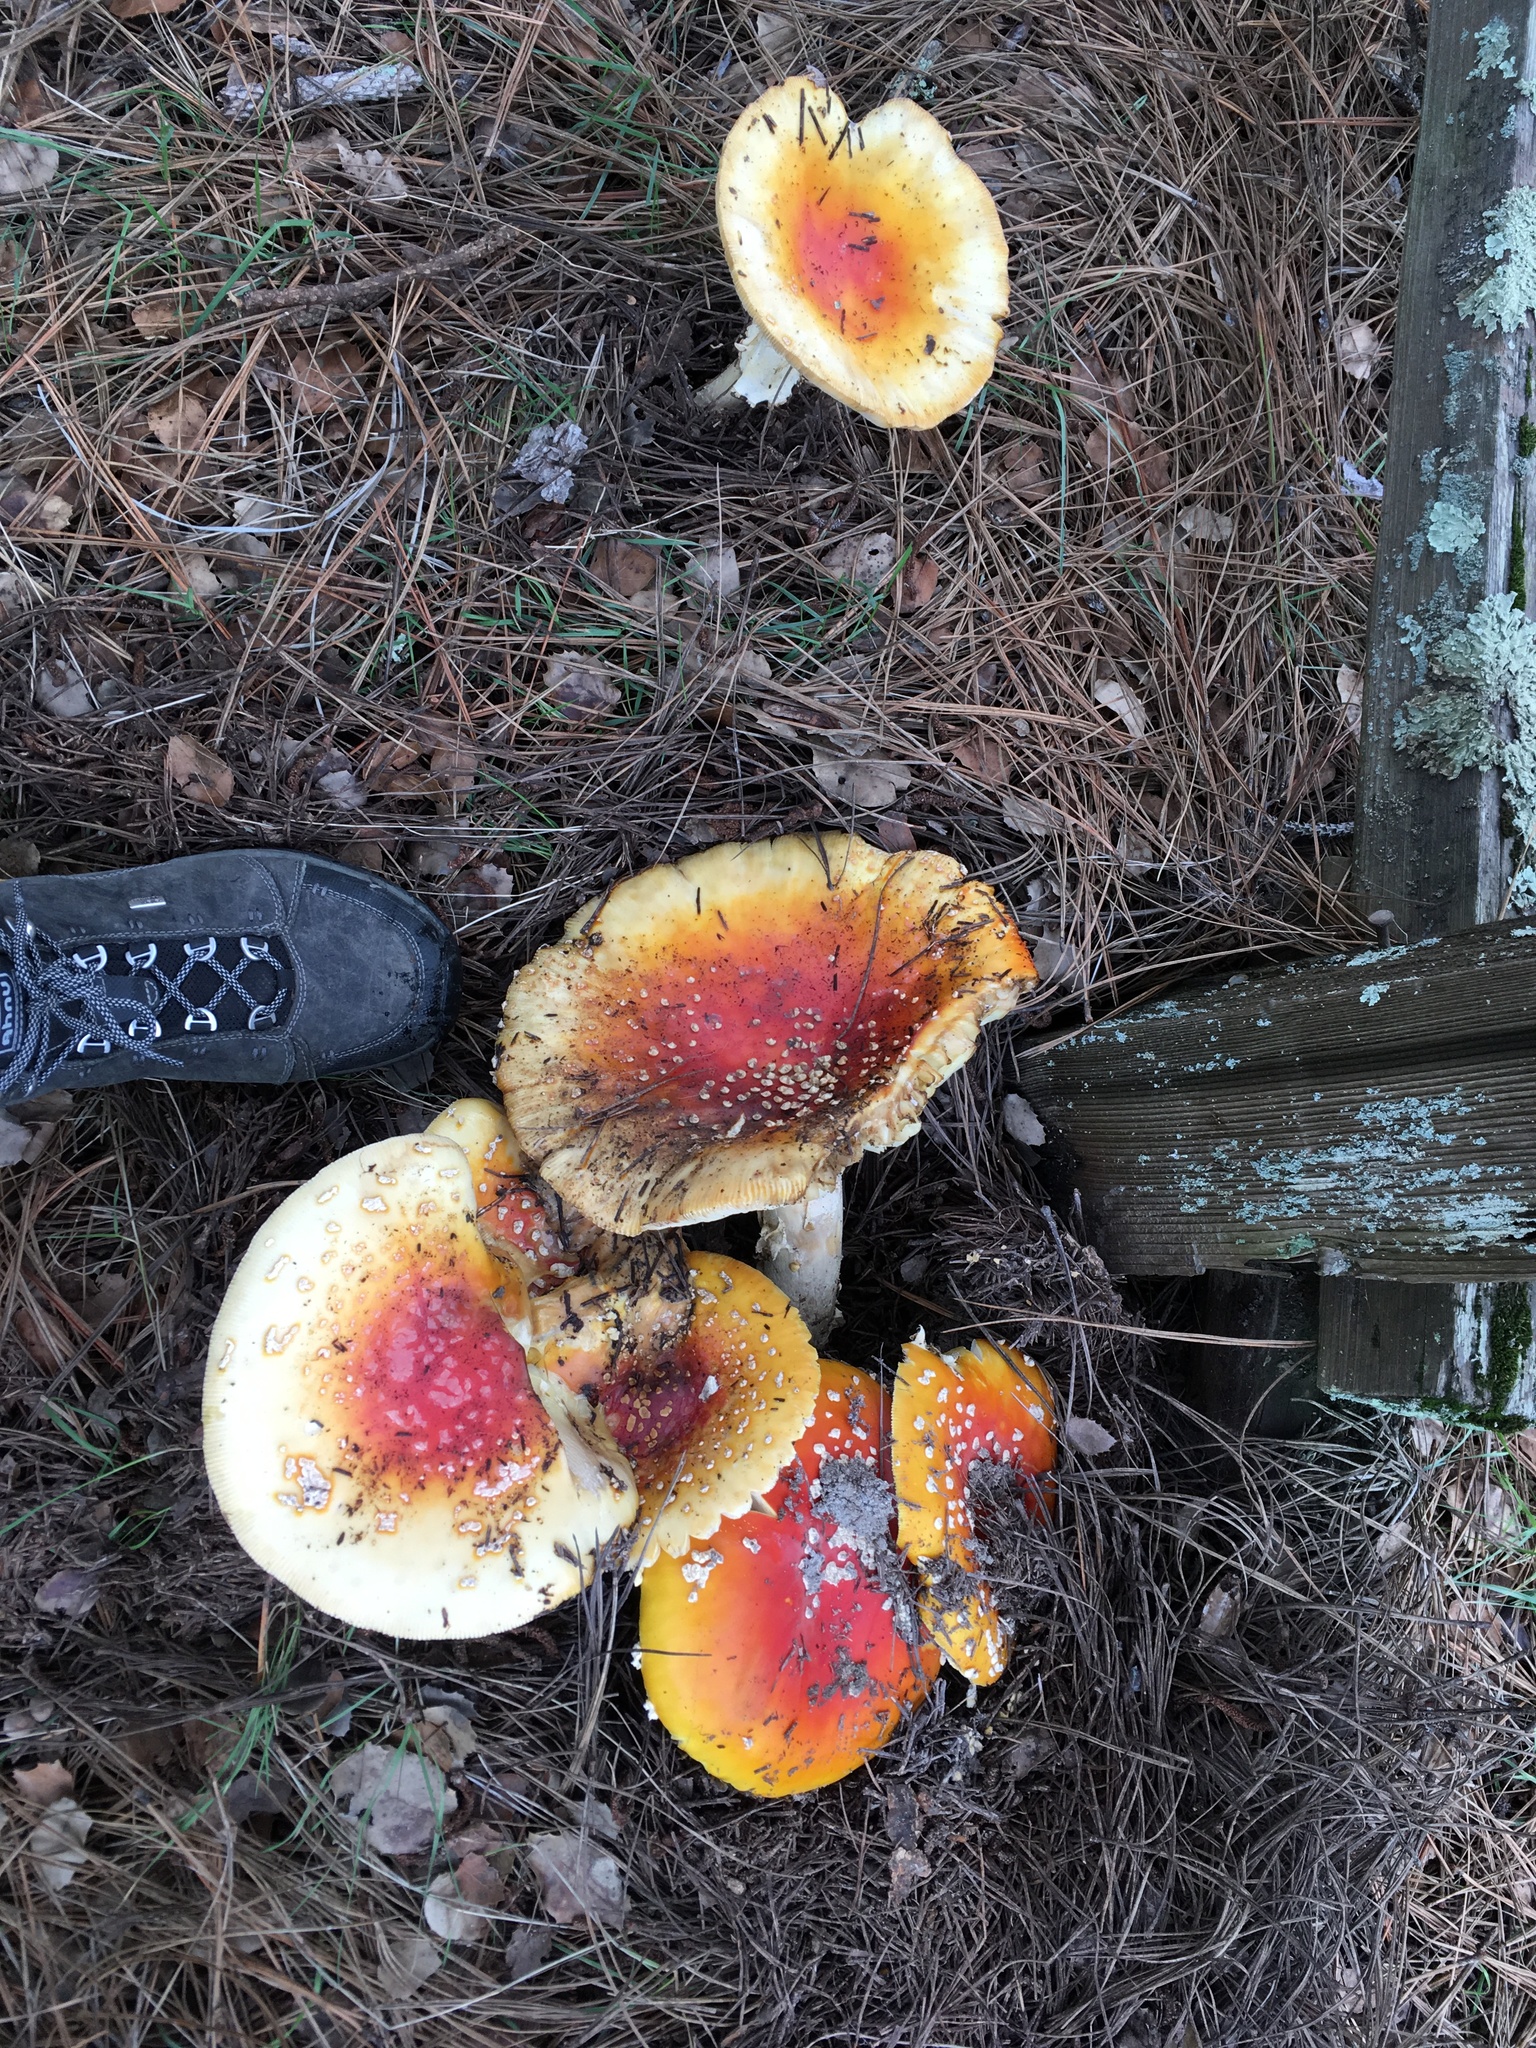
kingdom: Fungi
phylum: Basidiomycota
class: Agaricomycetes
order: Agaricales
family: Amanitaceae
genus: Amanita
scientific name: Amanita muscaria
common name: Fly agaric
